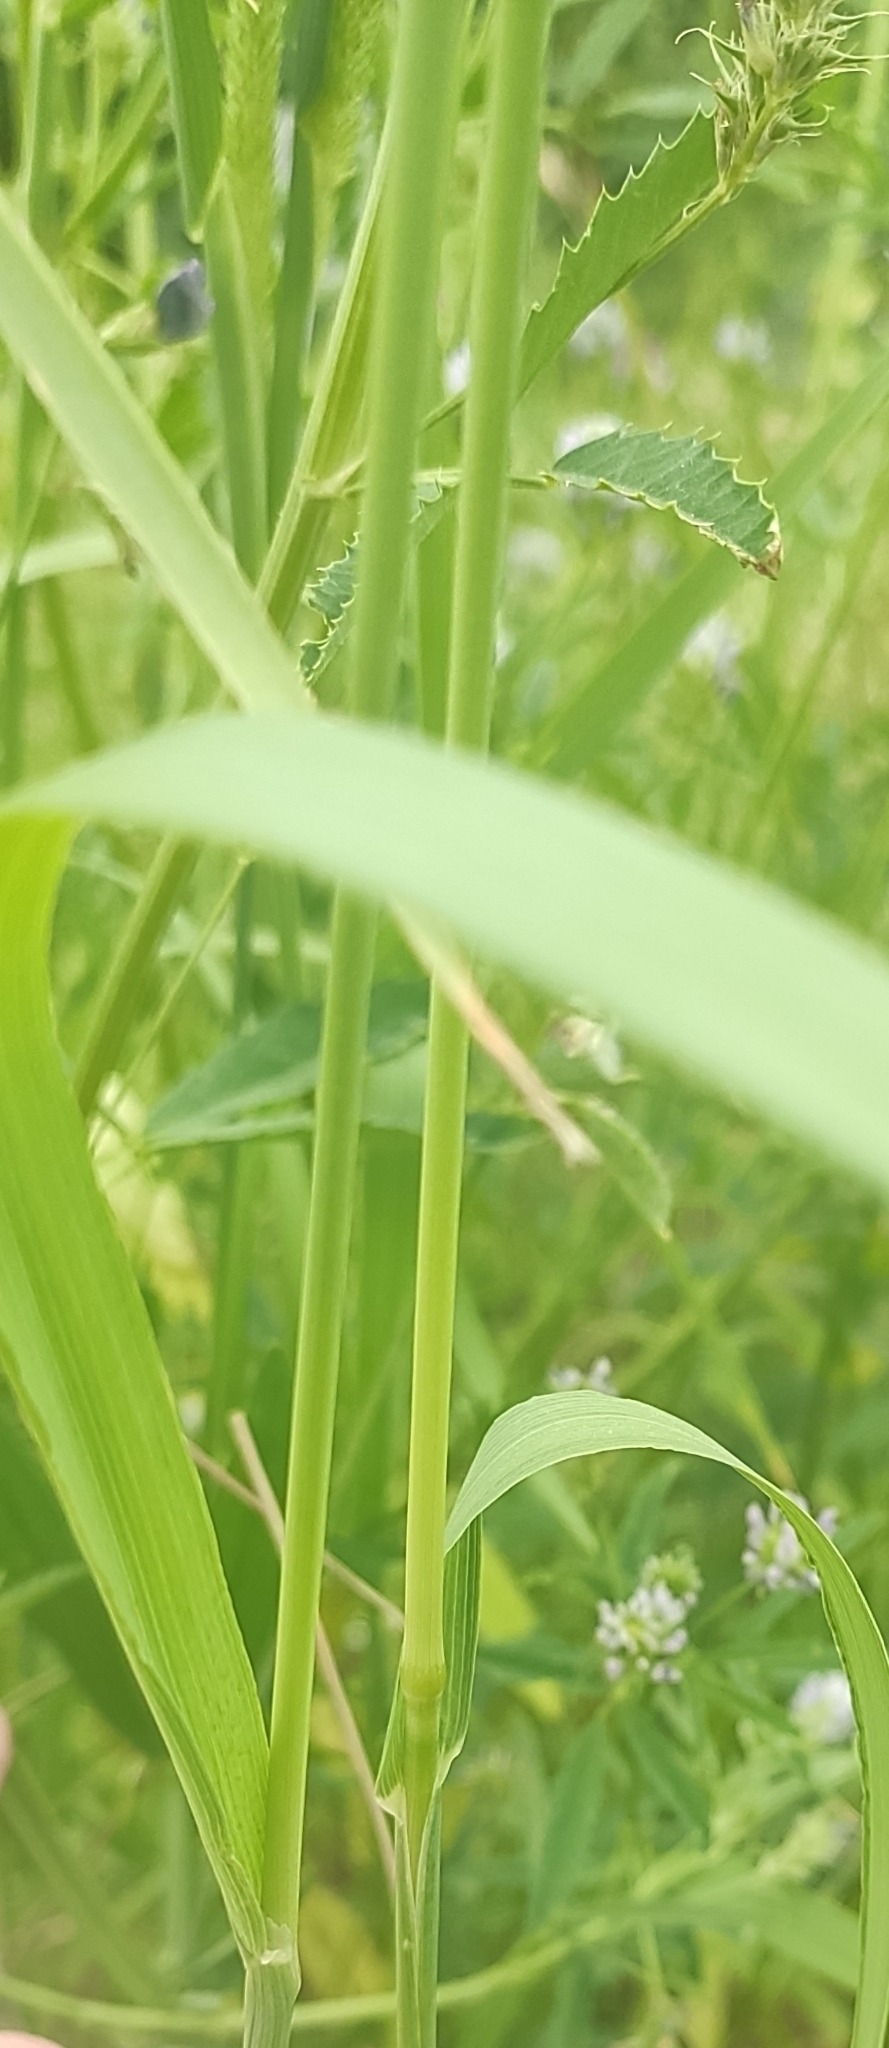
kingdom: Plantae
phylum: Tracheophyta
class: Liliopsida
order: Poales
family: Poaceae
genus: Phleum
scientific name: Phleum pratense
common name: Timothy grass
